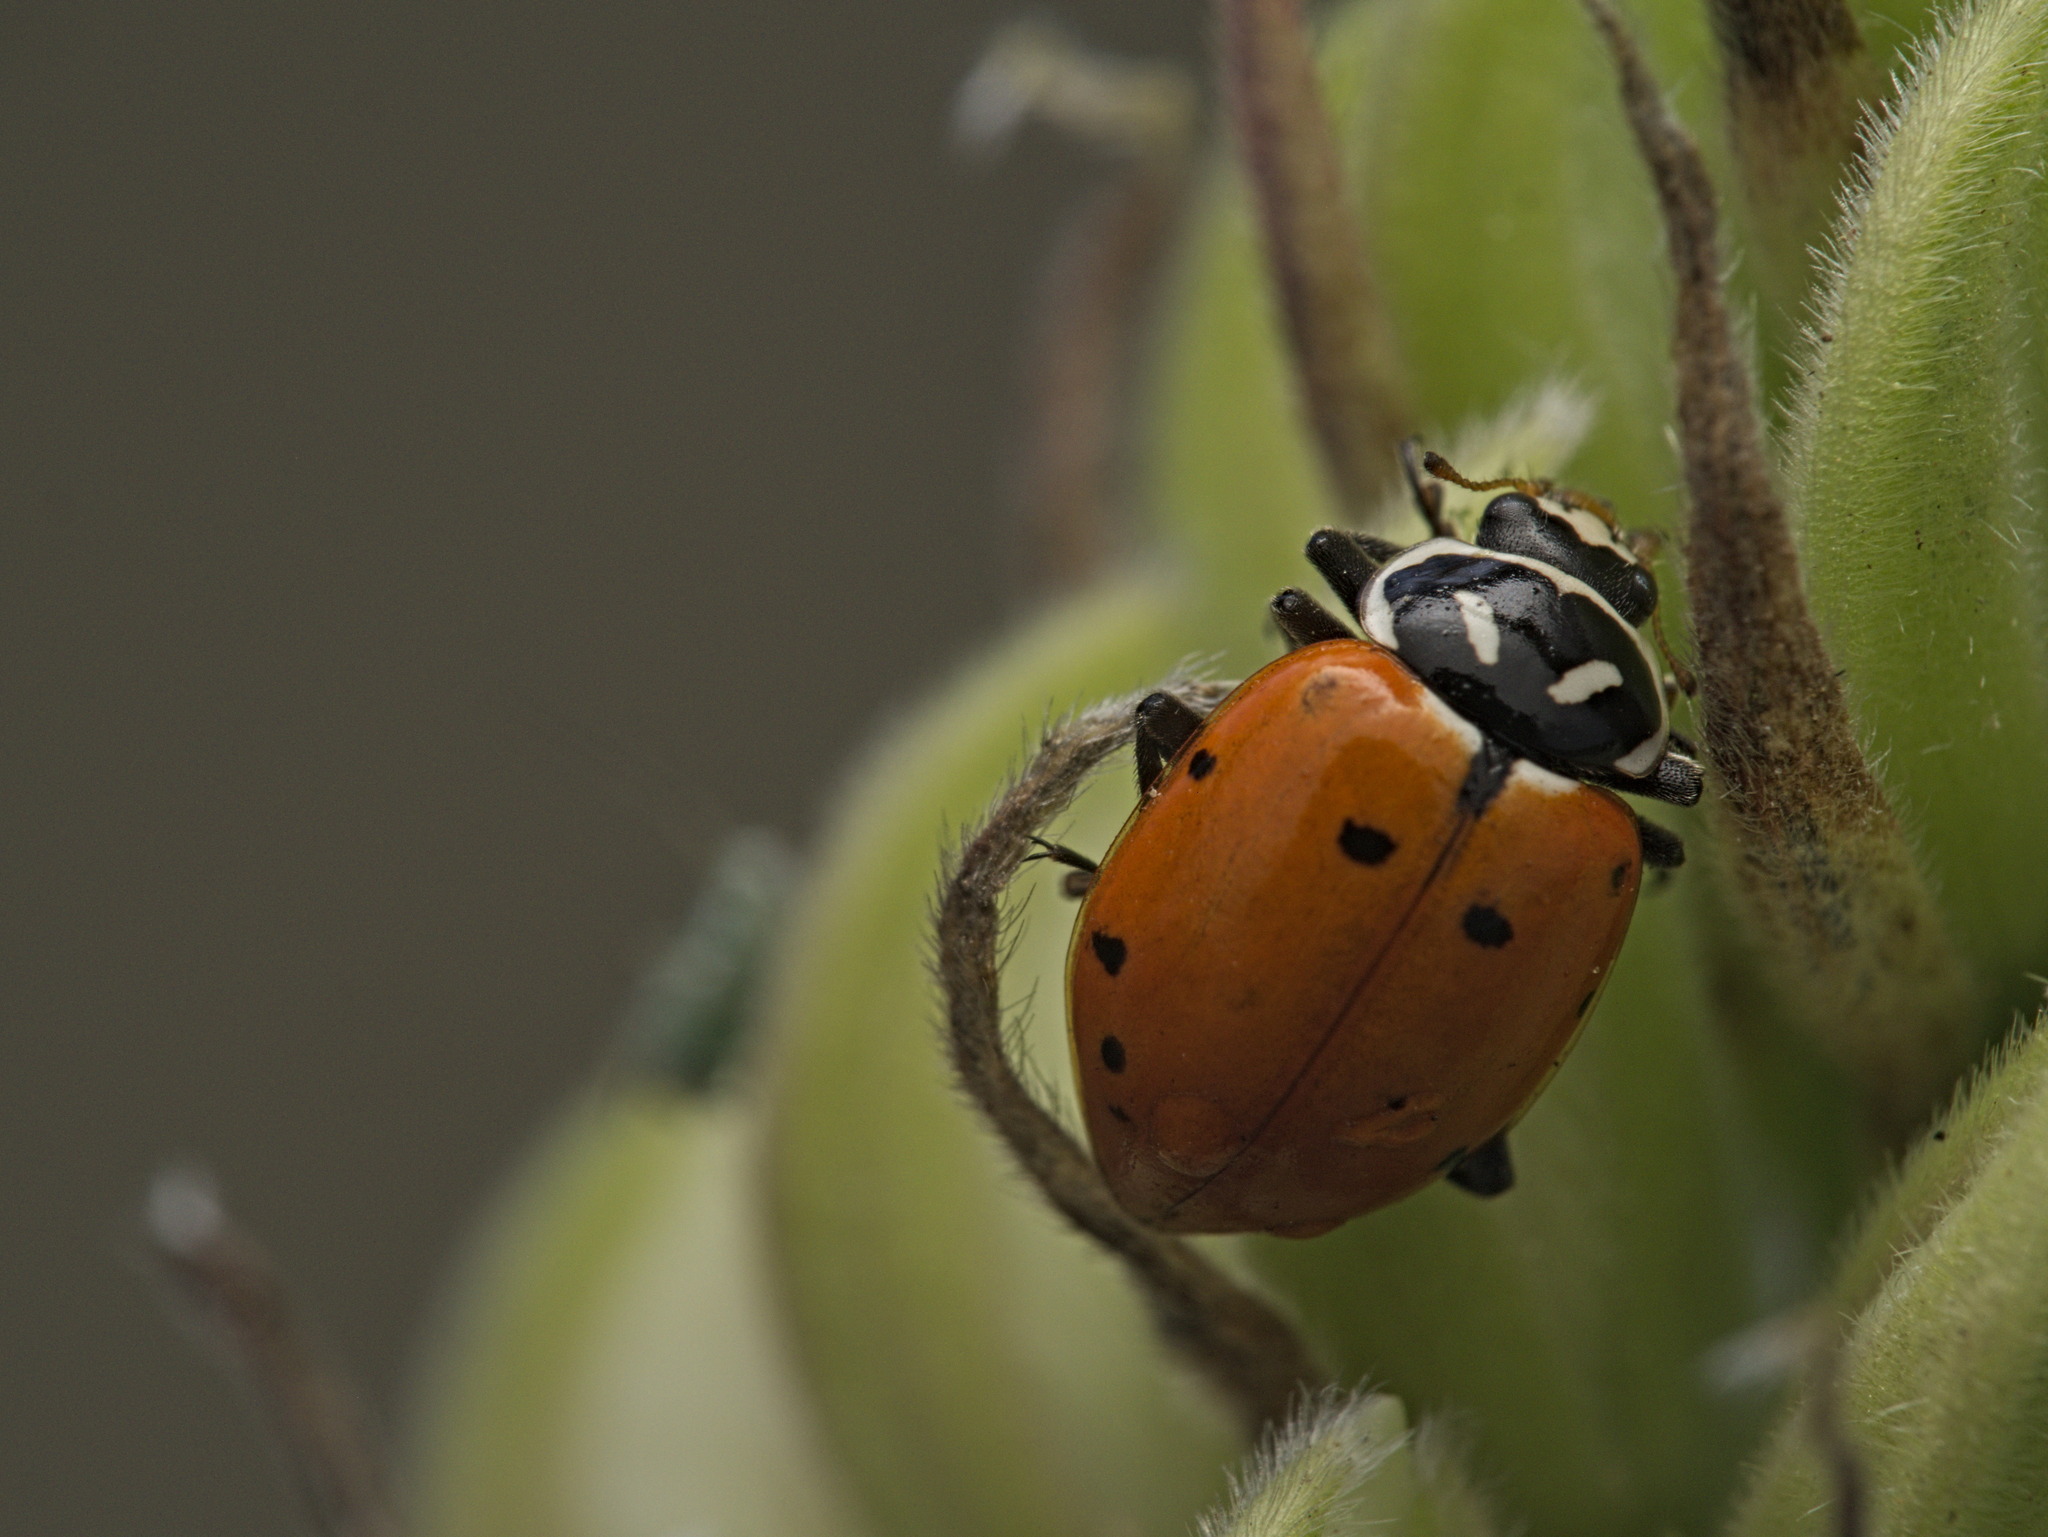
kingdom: Animalia
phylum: Arthropoda
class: Insecta
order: Coleoptera
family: Coccinellidae
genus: Hippodamia
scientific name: Hippodamia convergens
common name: Convergent lady beetle
